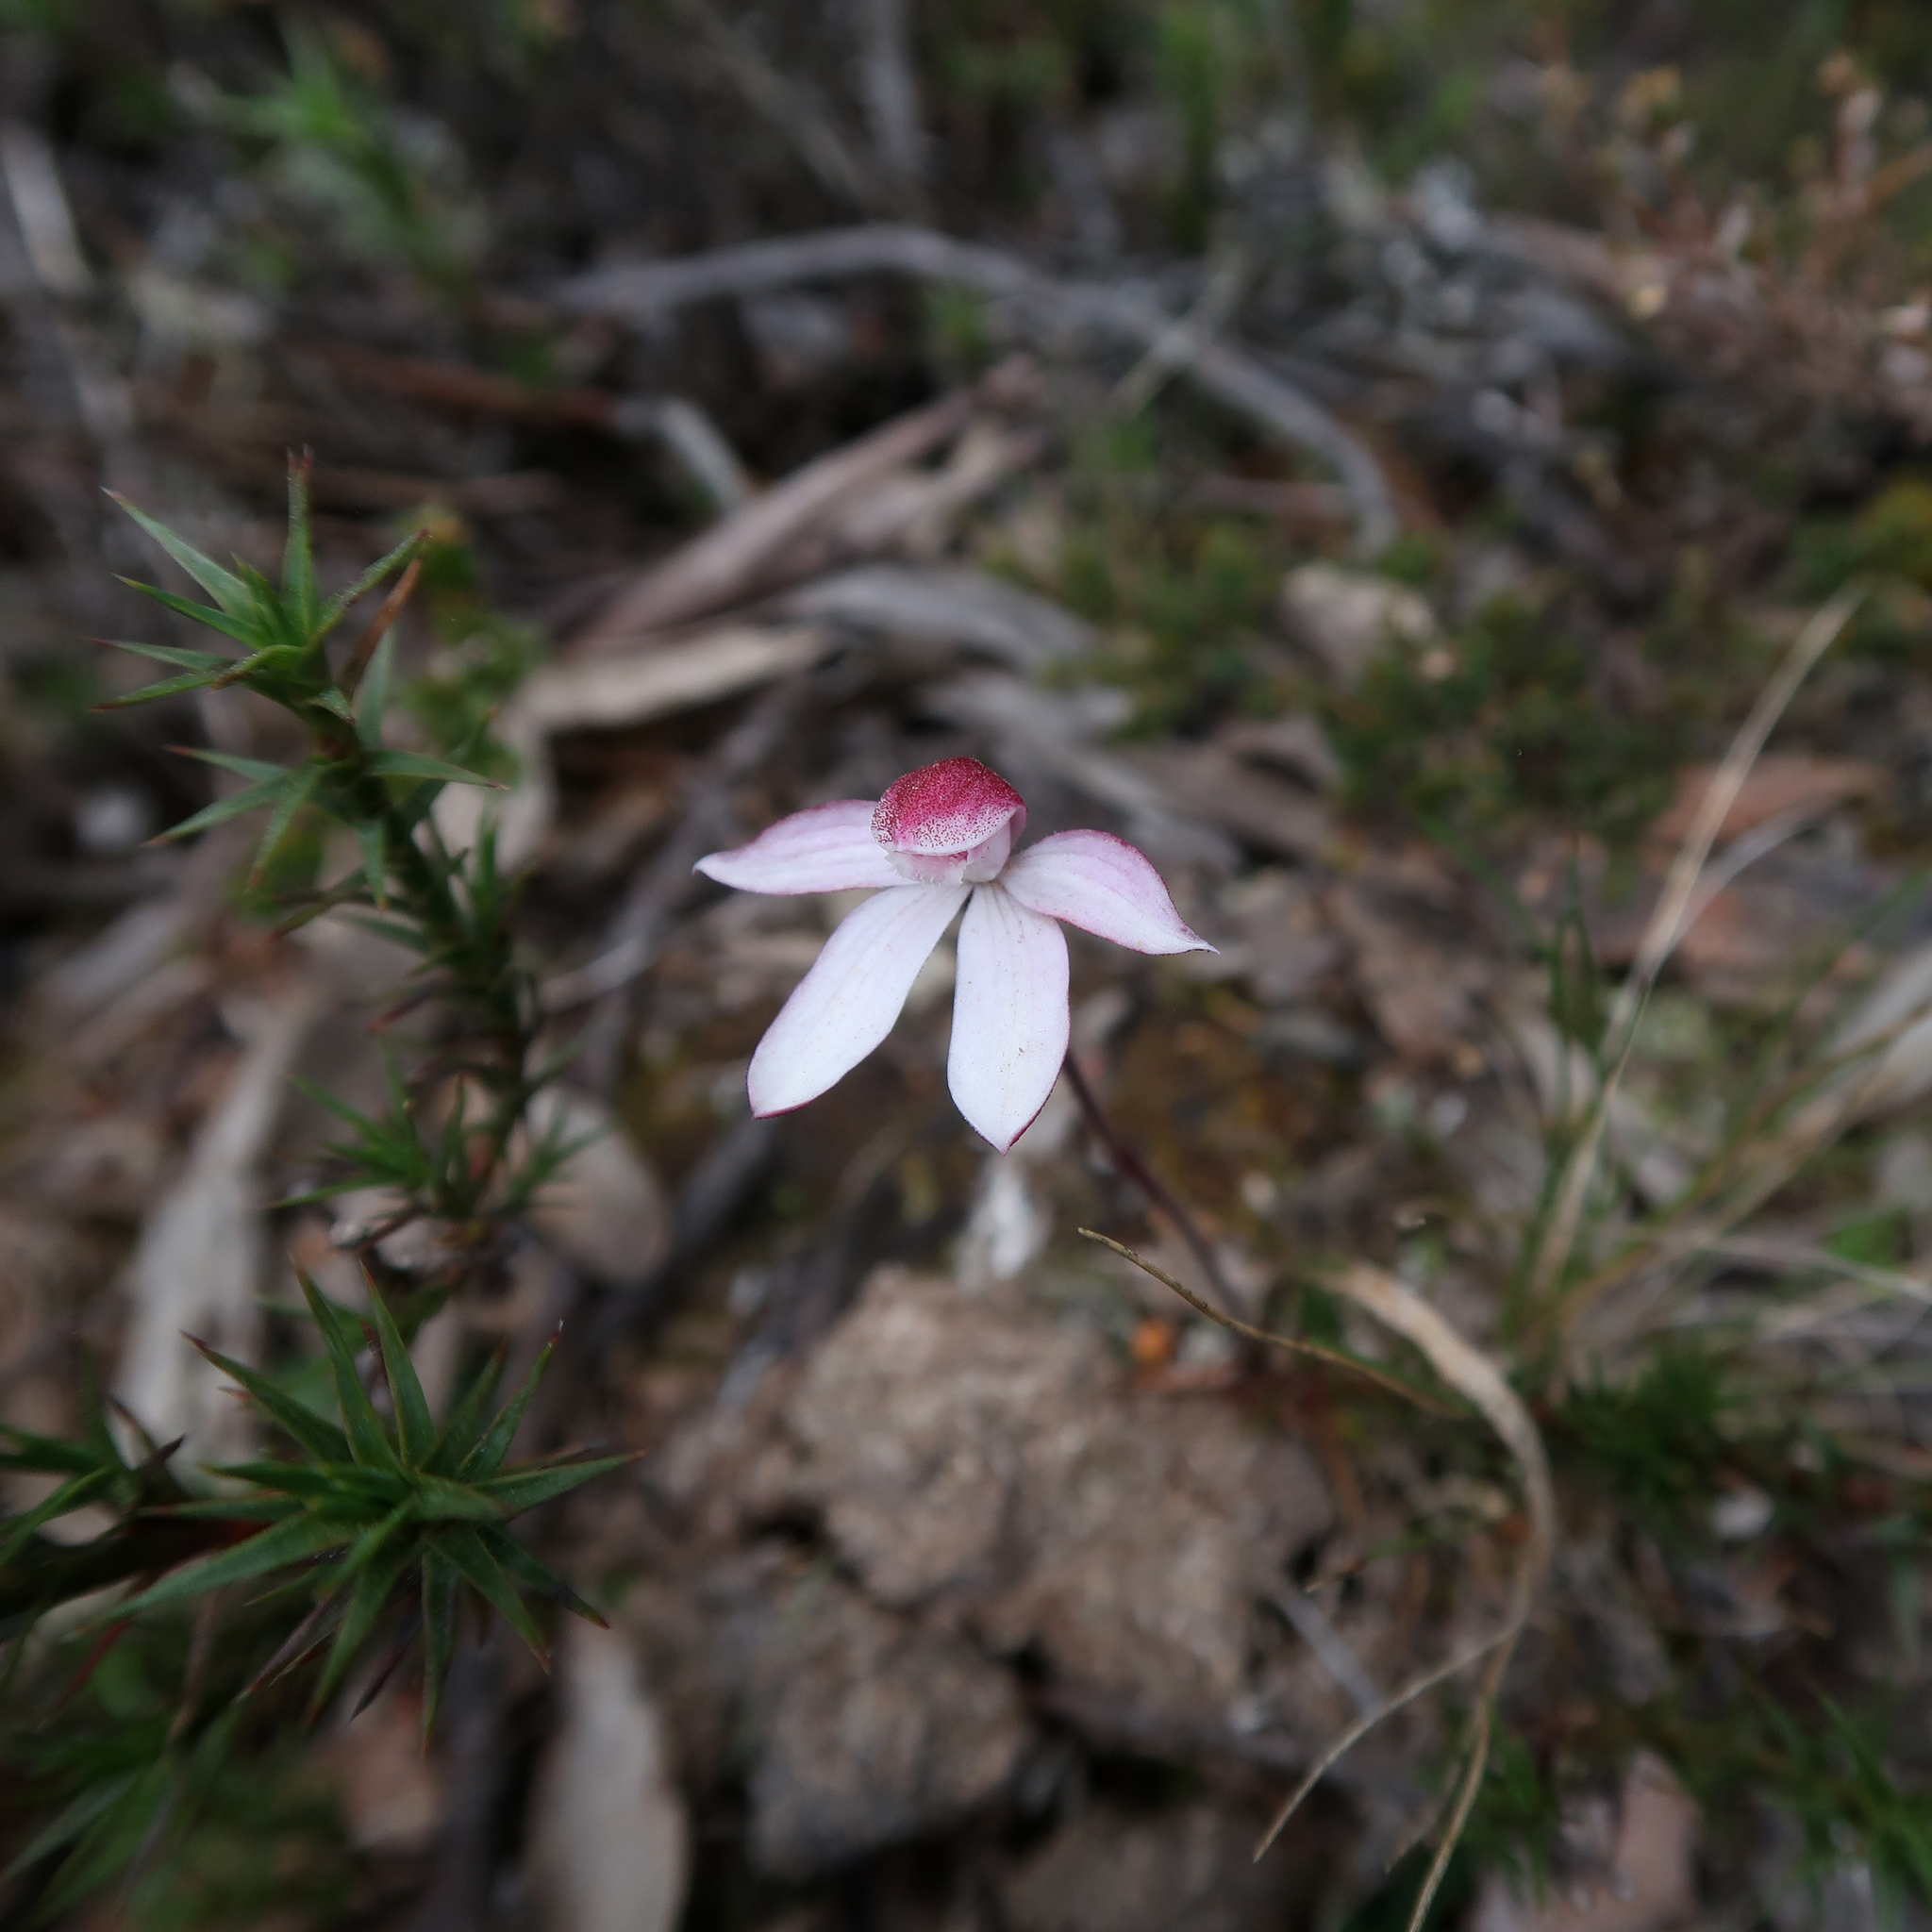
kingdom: Plantae
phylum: Tracheophyta
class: Liliopsida
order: Asparagales
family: Orchidaceae
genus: Caladenia
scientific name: Caladenia alpina
